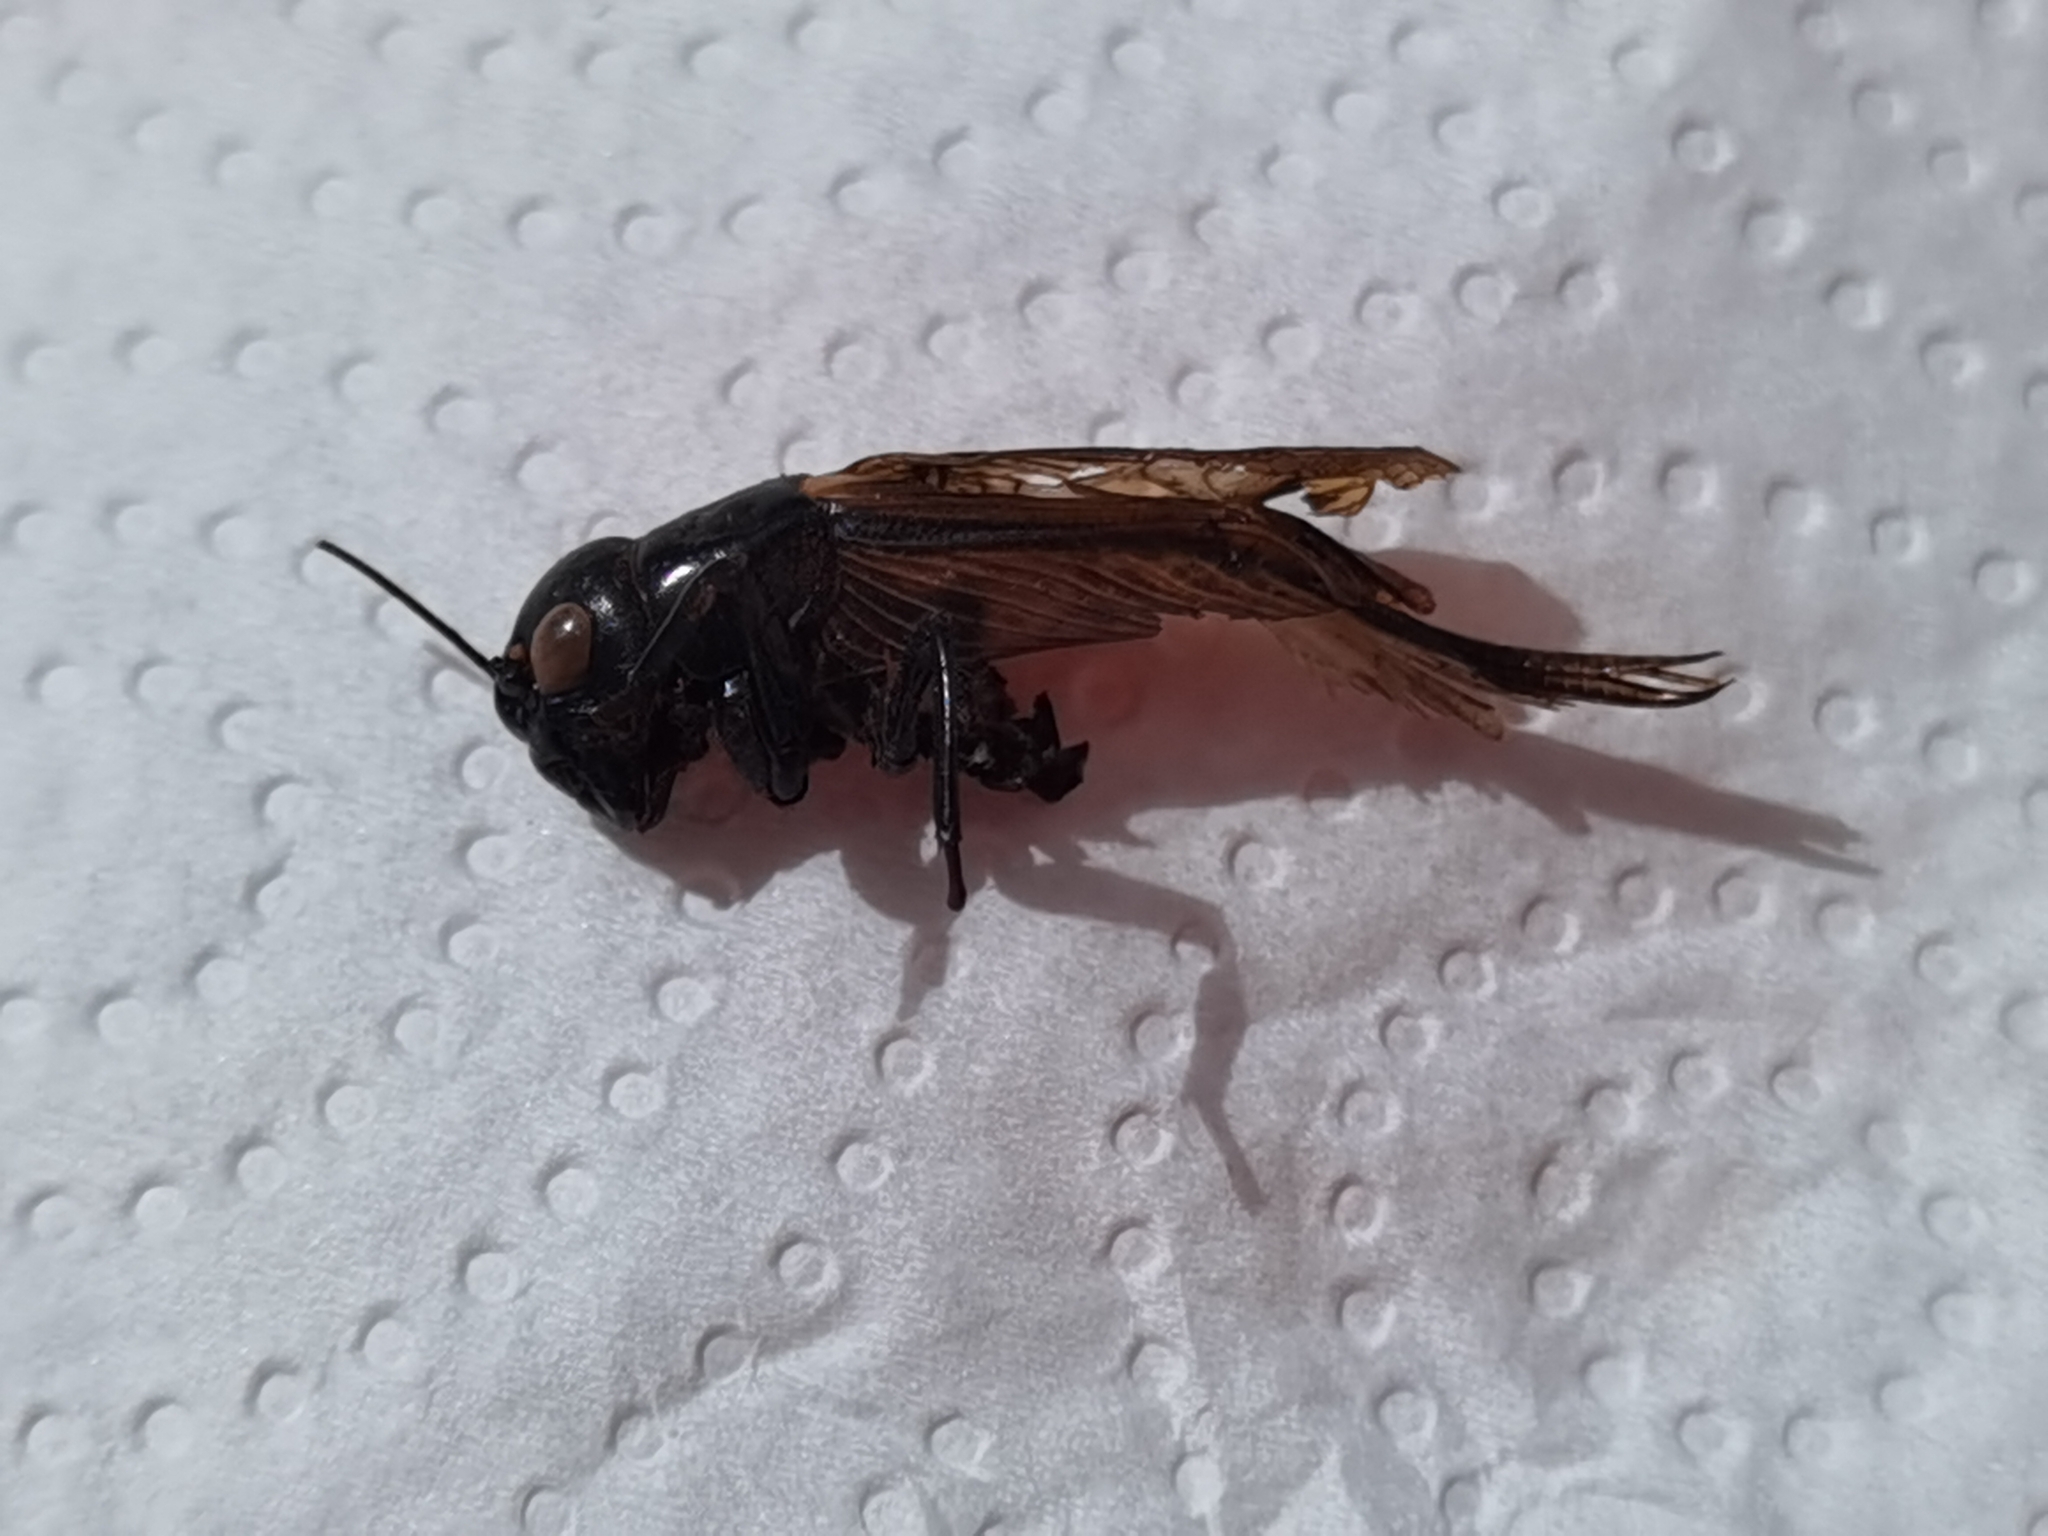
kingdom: Animalia
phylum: Arthropoda
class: Insecta
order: Orthoptera
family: Gryllidae
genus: Gryllus
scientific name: Gryllus bimaculatus
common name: Two-spotted cricket
